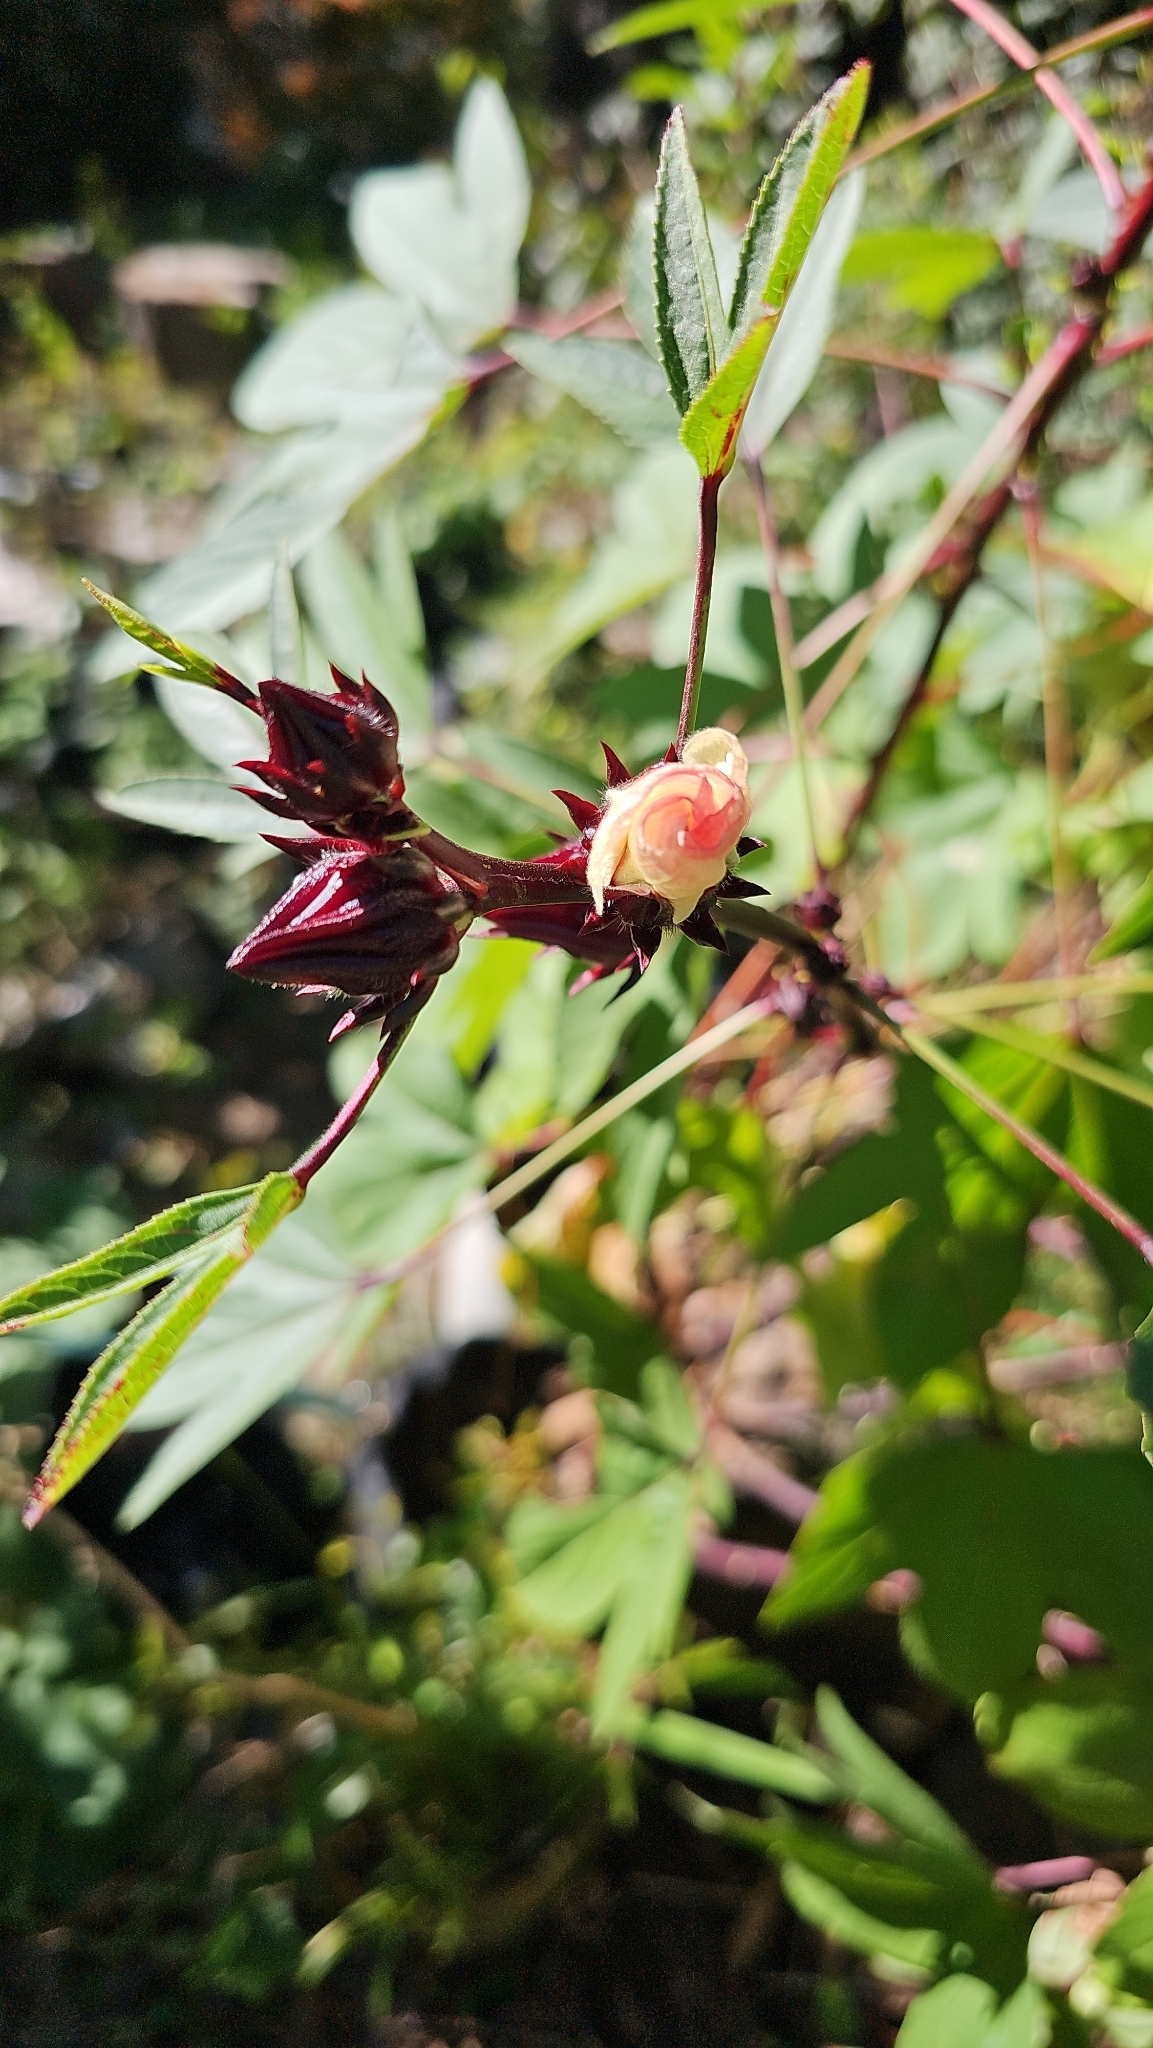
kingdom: Plantae
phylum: Tracheophyta
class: Magnoliopsida
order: Malvales
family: Malvaceae
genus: Hibiscus
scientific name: Hibiscus sabdariffa
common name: Roselle
